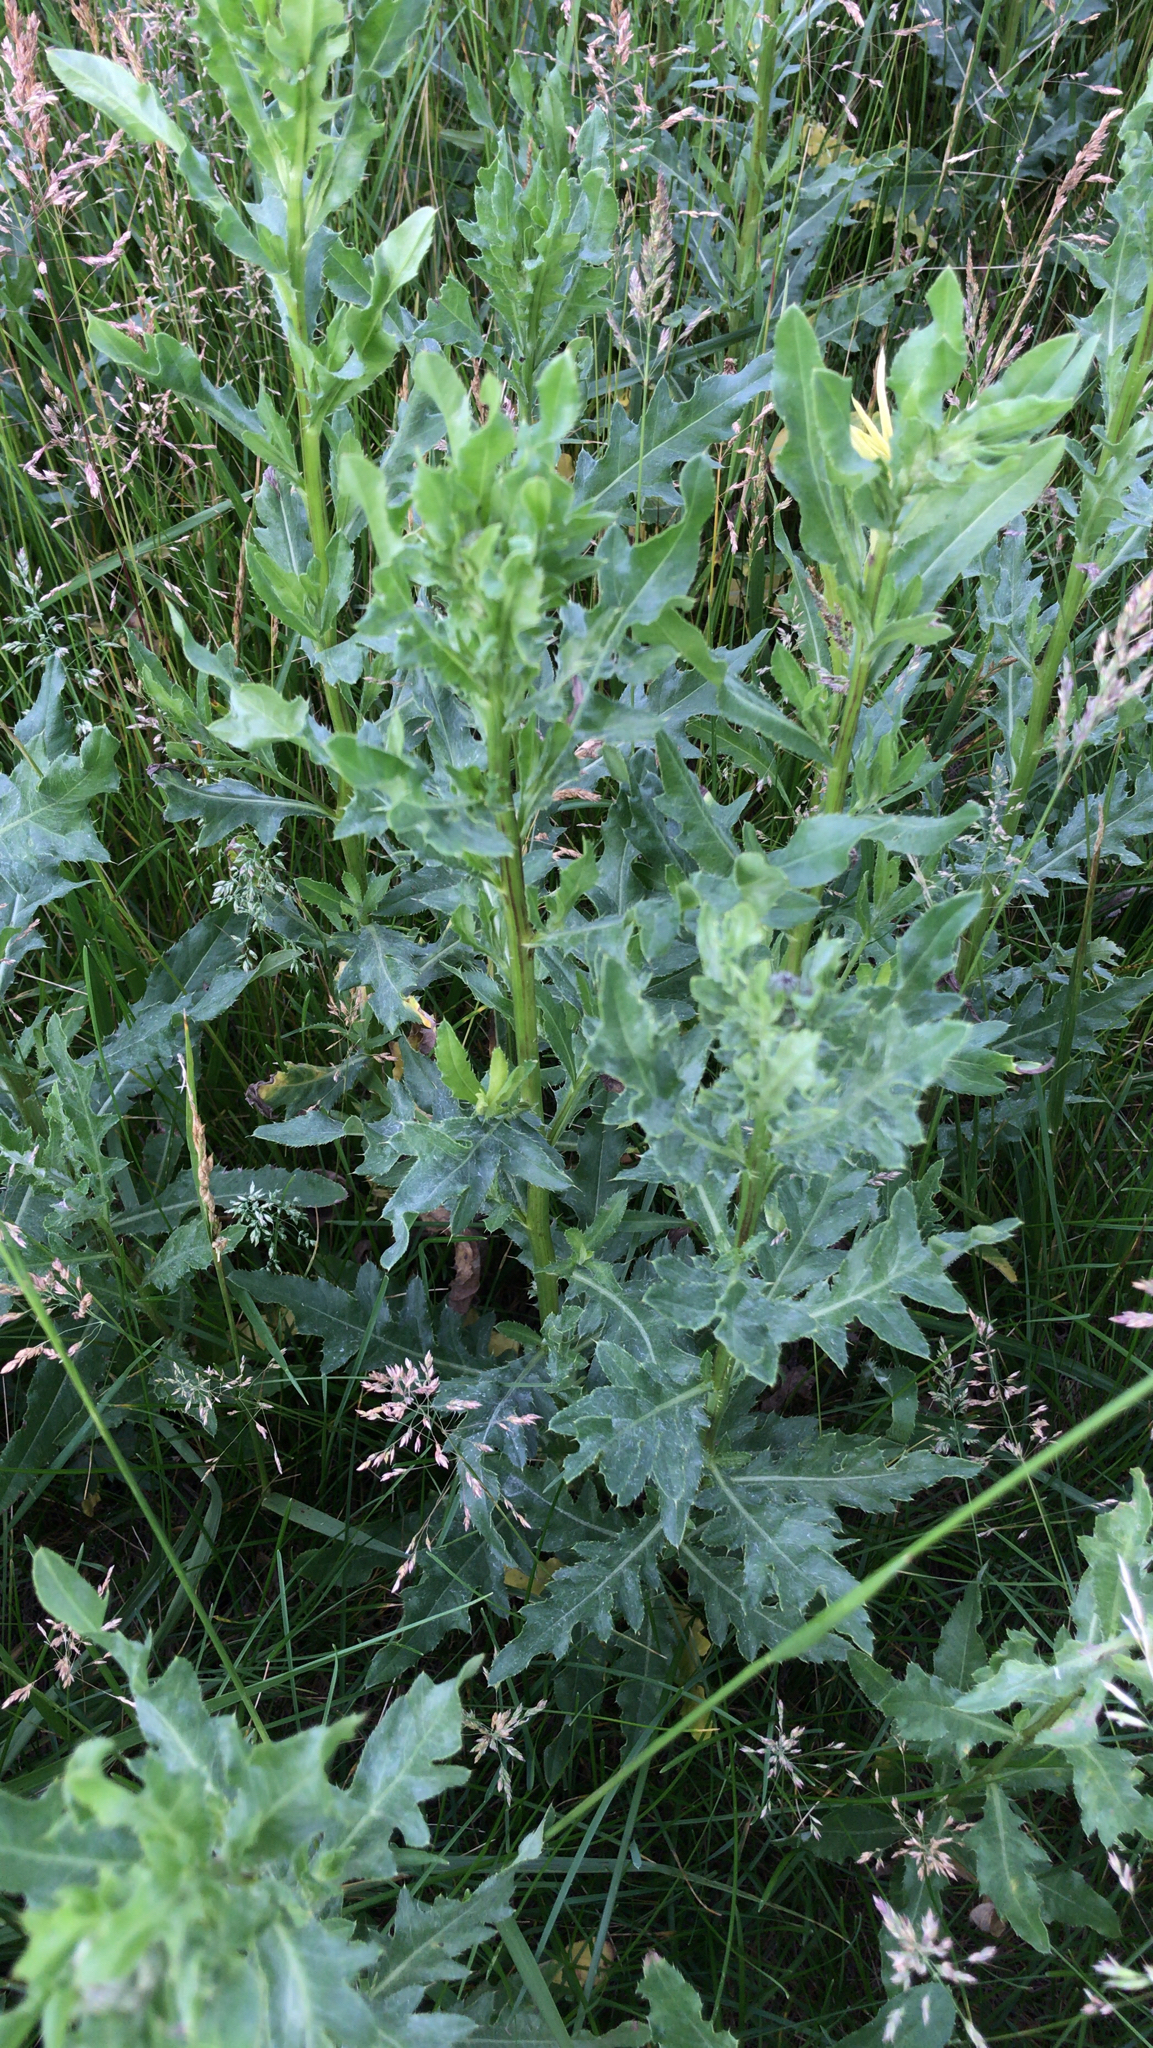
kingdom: Plantae
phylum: Tracheophyta
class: Magnoliopsida
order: Asterales
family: Asteraceae
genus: Cirsium
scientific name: Cirsium arvense
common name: Creeping thistle
